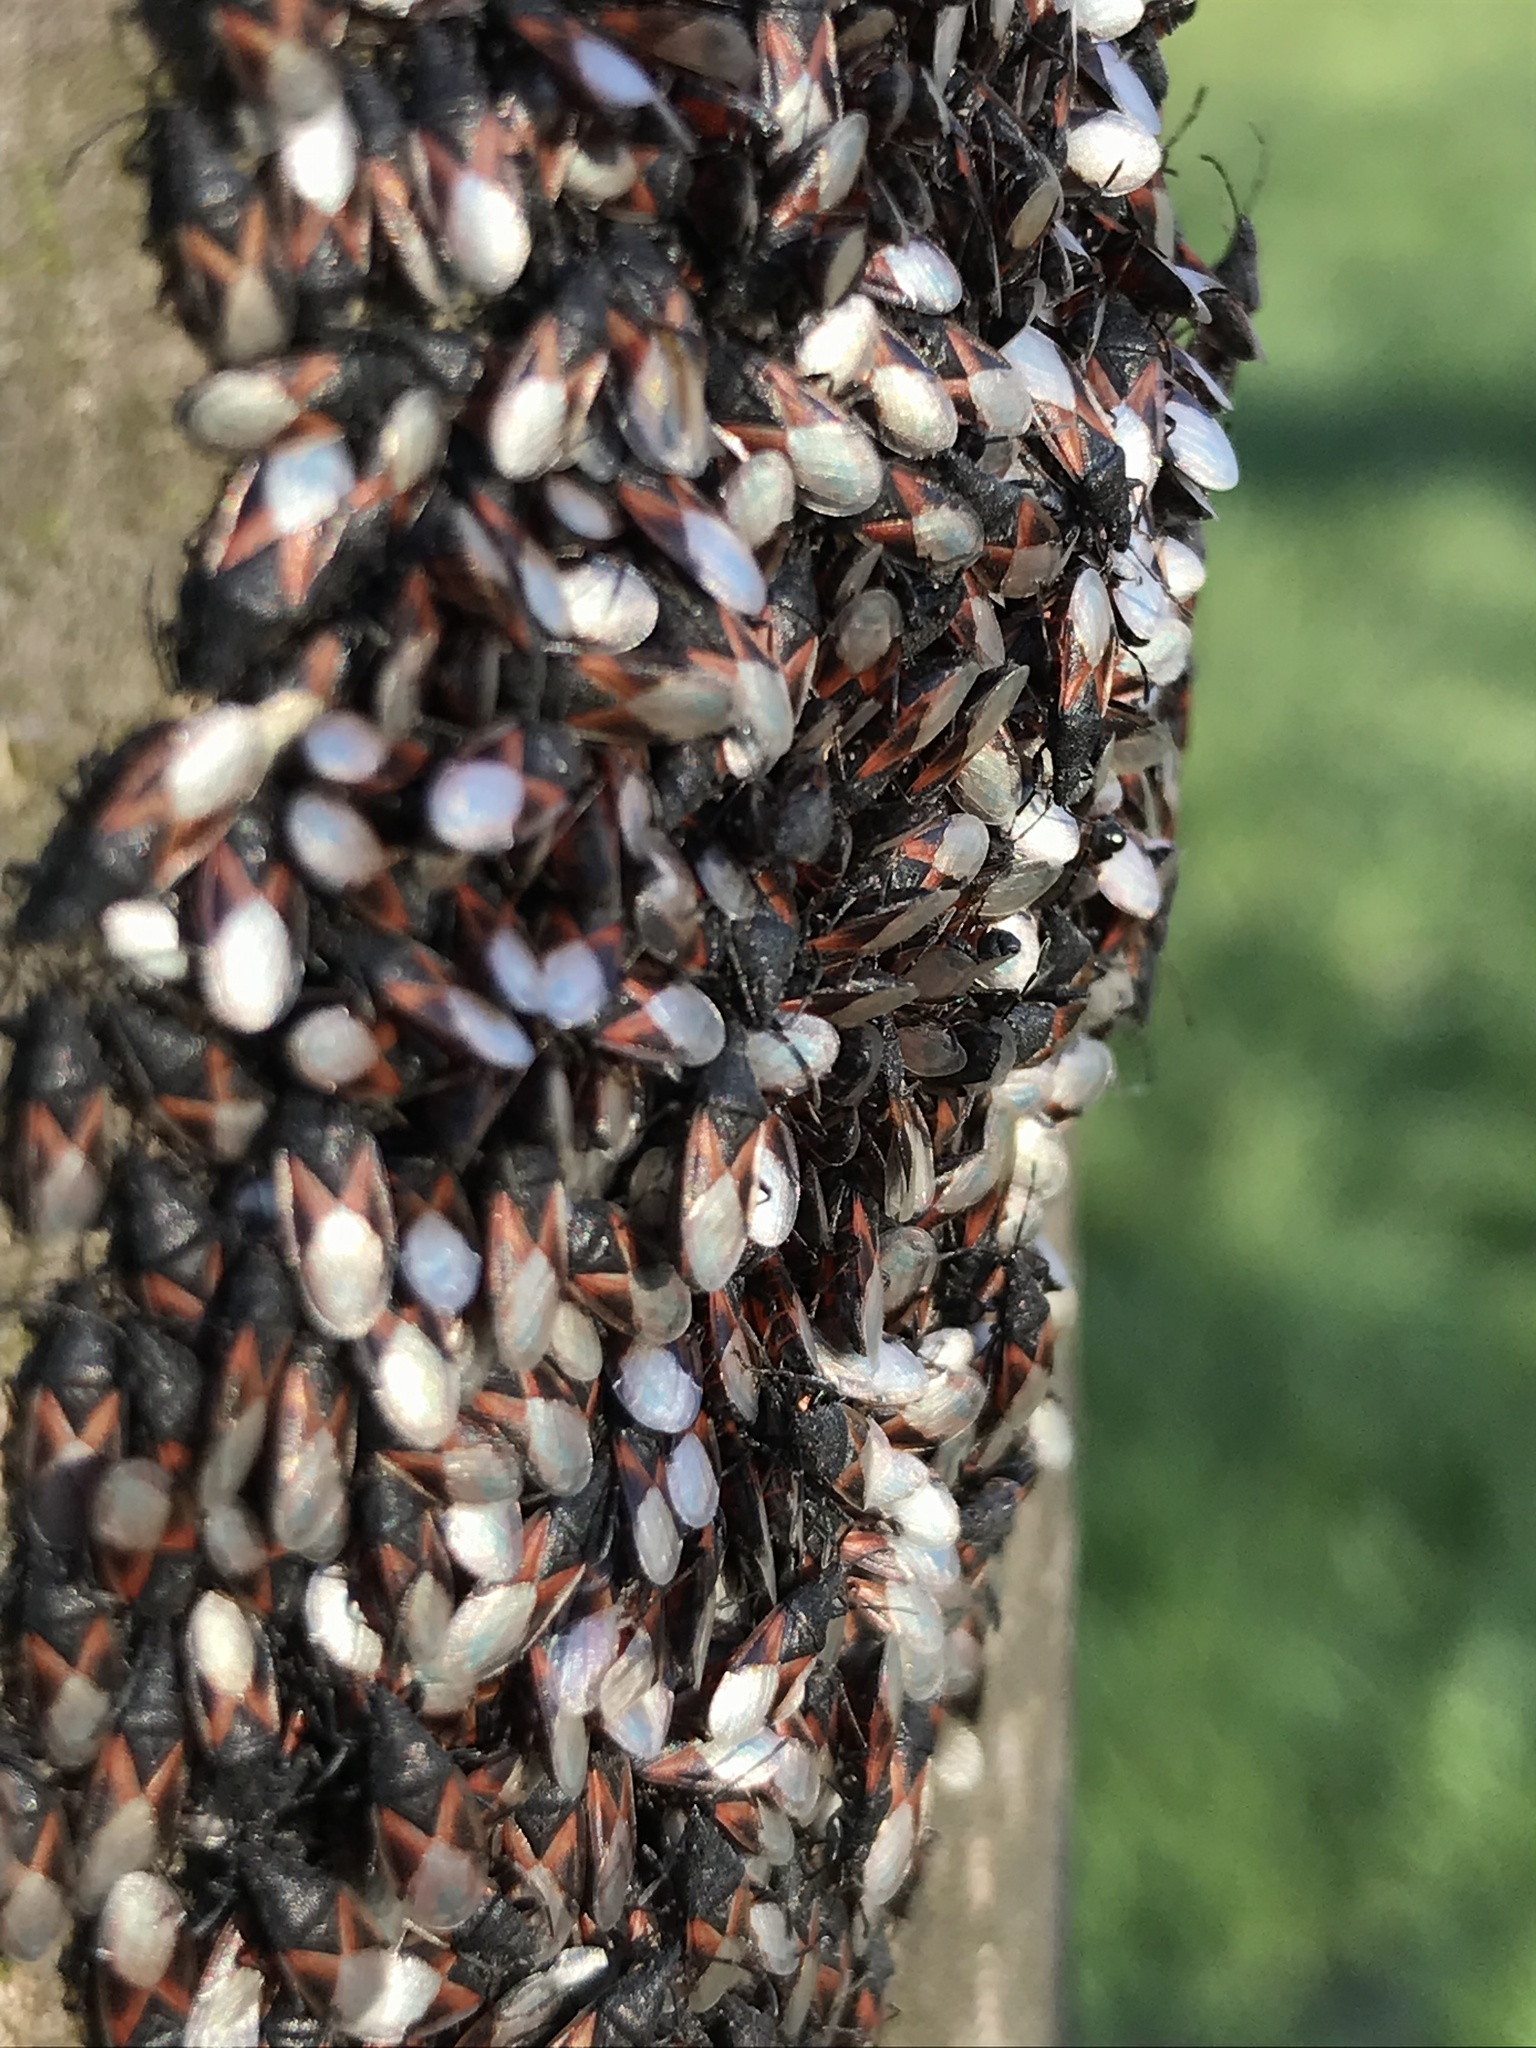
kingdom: Animalia
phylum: Arthropoda
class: Insecta
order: Hemiptera
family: Oxycarenidae
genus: Oxycarenus
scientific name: Oxycarenus lavaterae
